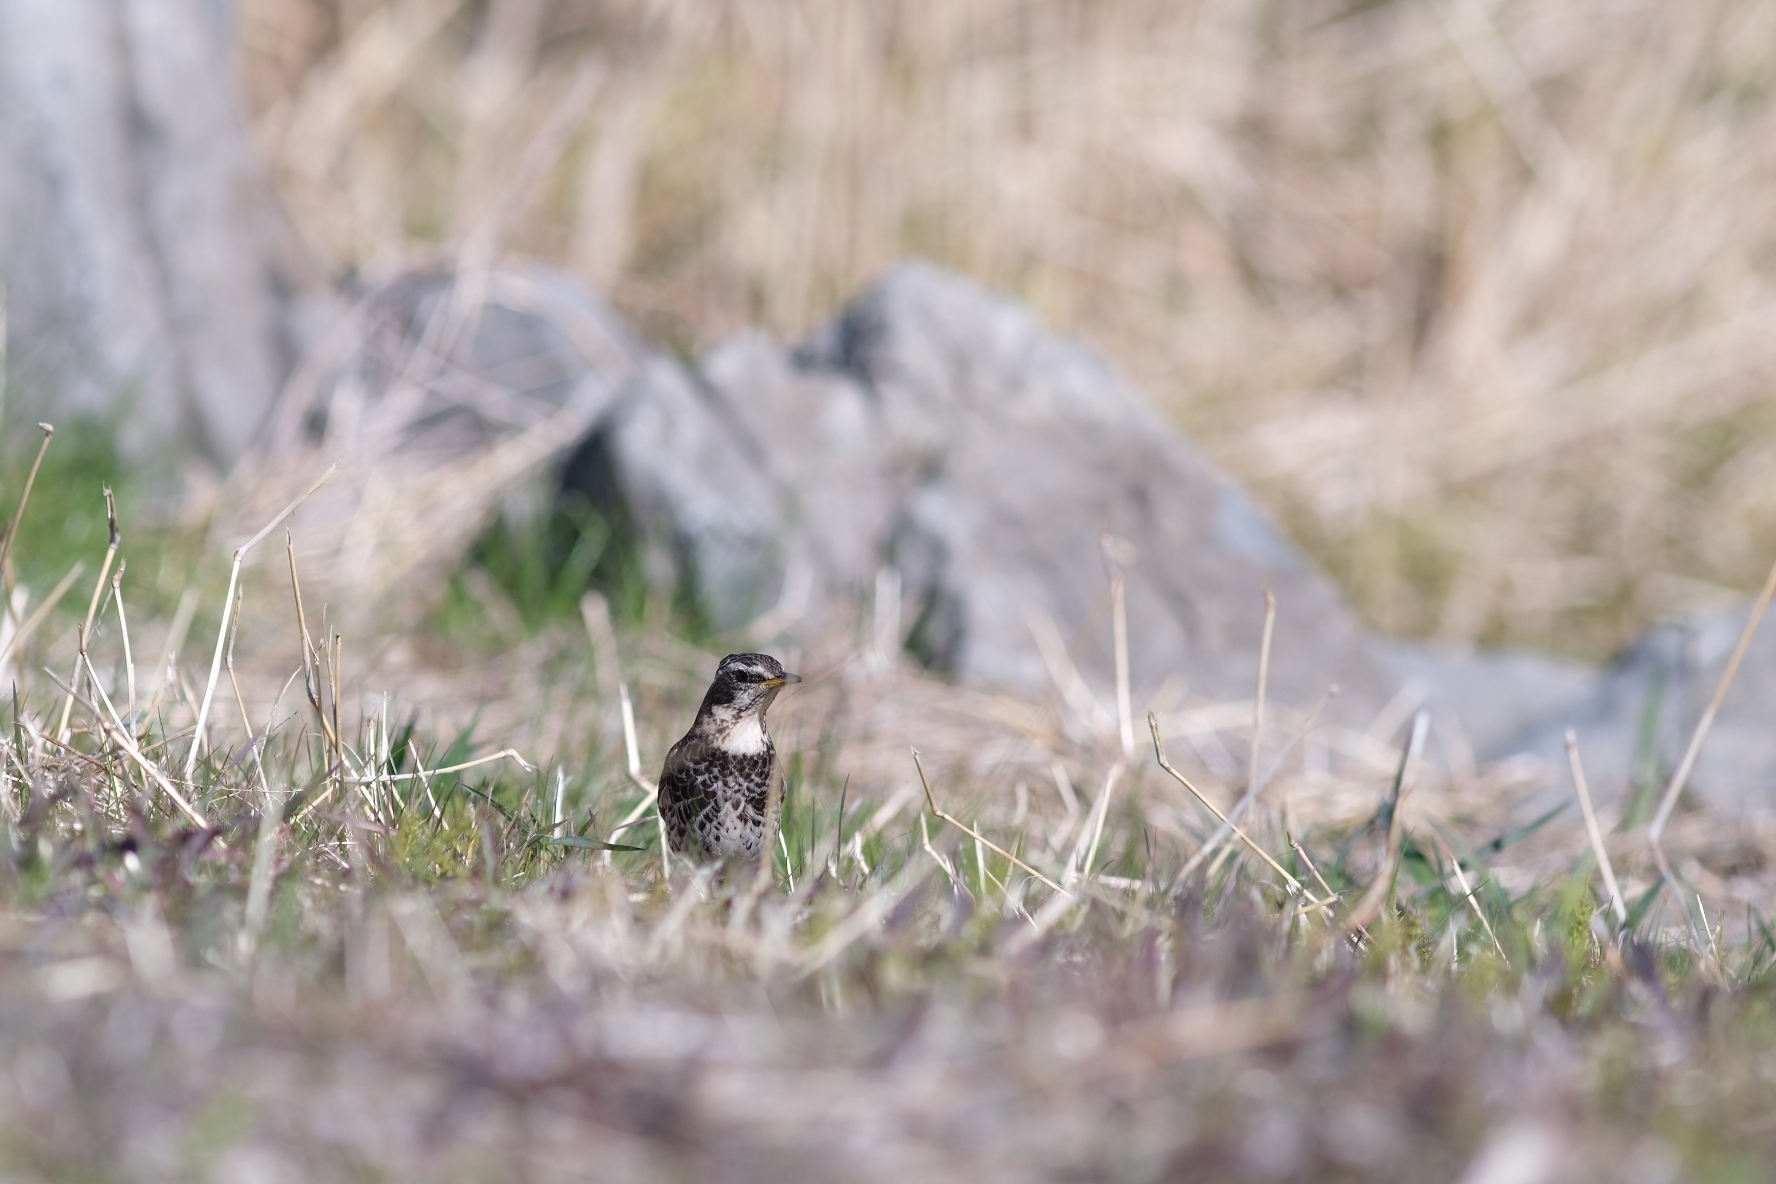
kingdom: Animalia
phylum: Chordata
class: Aves
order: Passeriformes
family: Turdidae
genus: Turdus
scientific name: Turdus eunomus
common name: Dusky thrush
